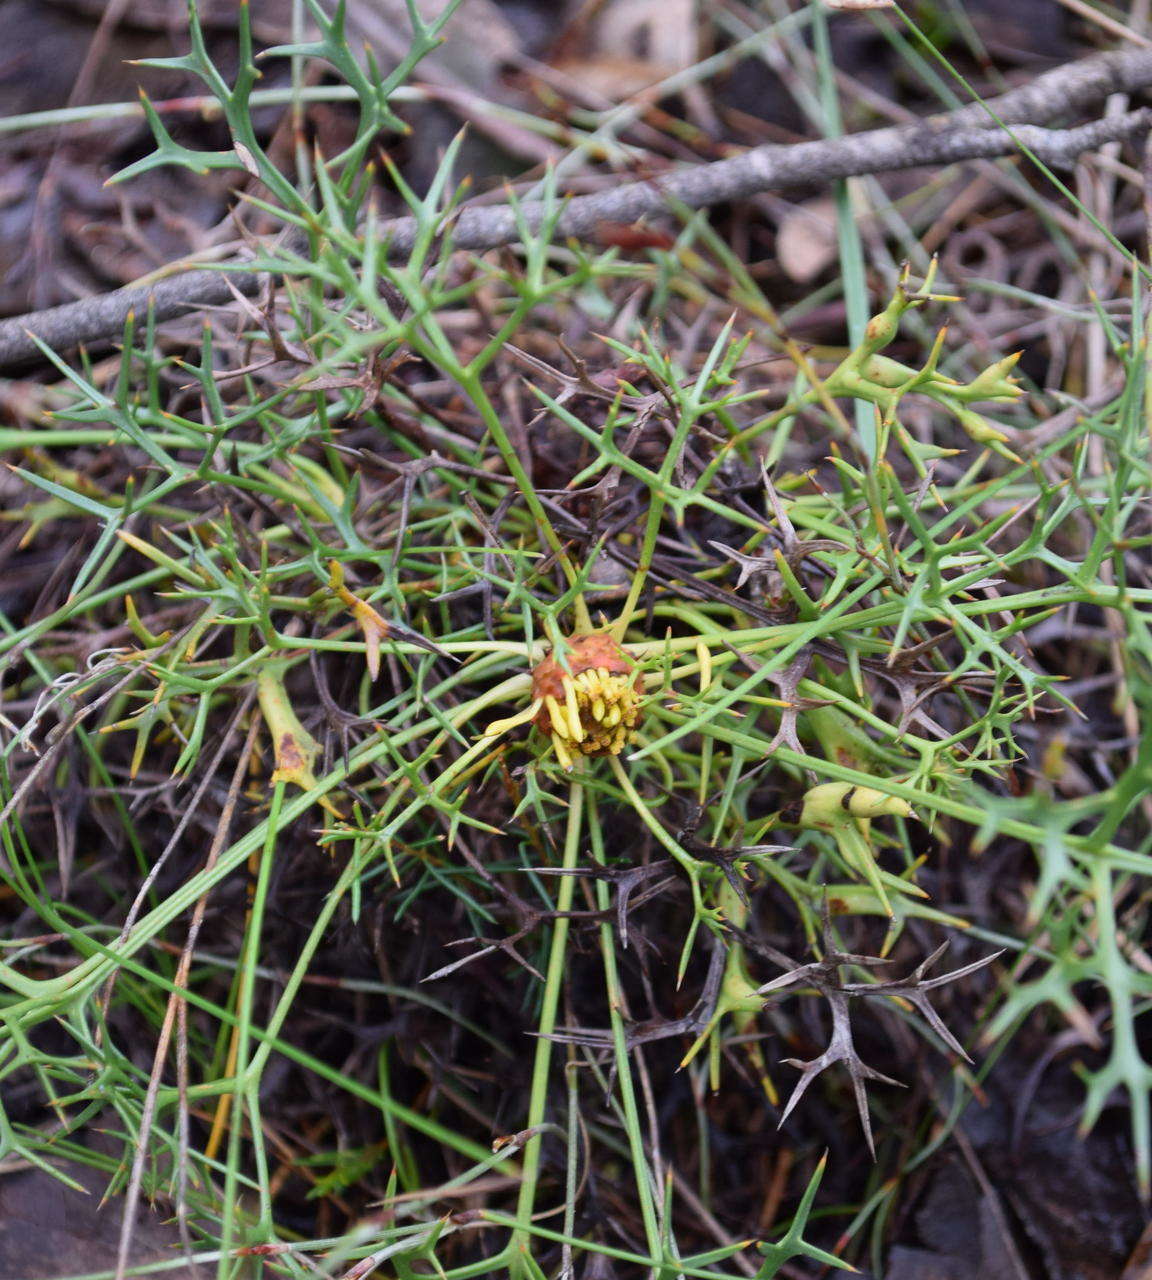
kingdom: Plantae
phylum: Tracheophyta
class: Magnoliopsida
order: Proteales
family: Proteaceae
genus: Isopogon
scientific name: Isopogon ceratophyllus
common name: Horny cone-bush
